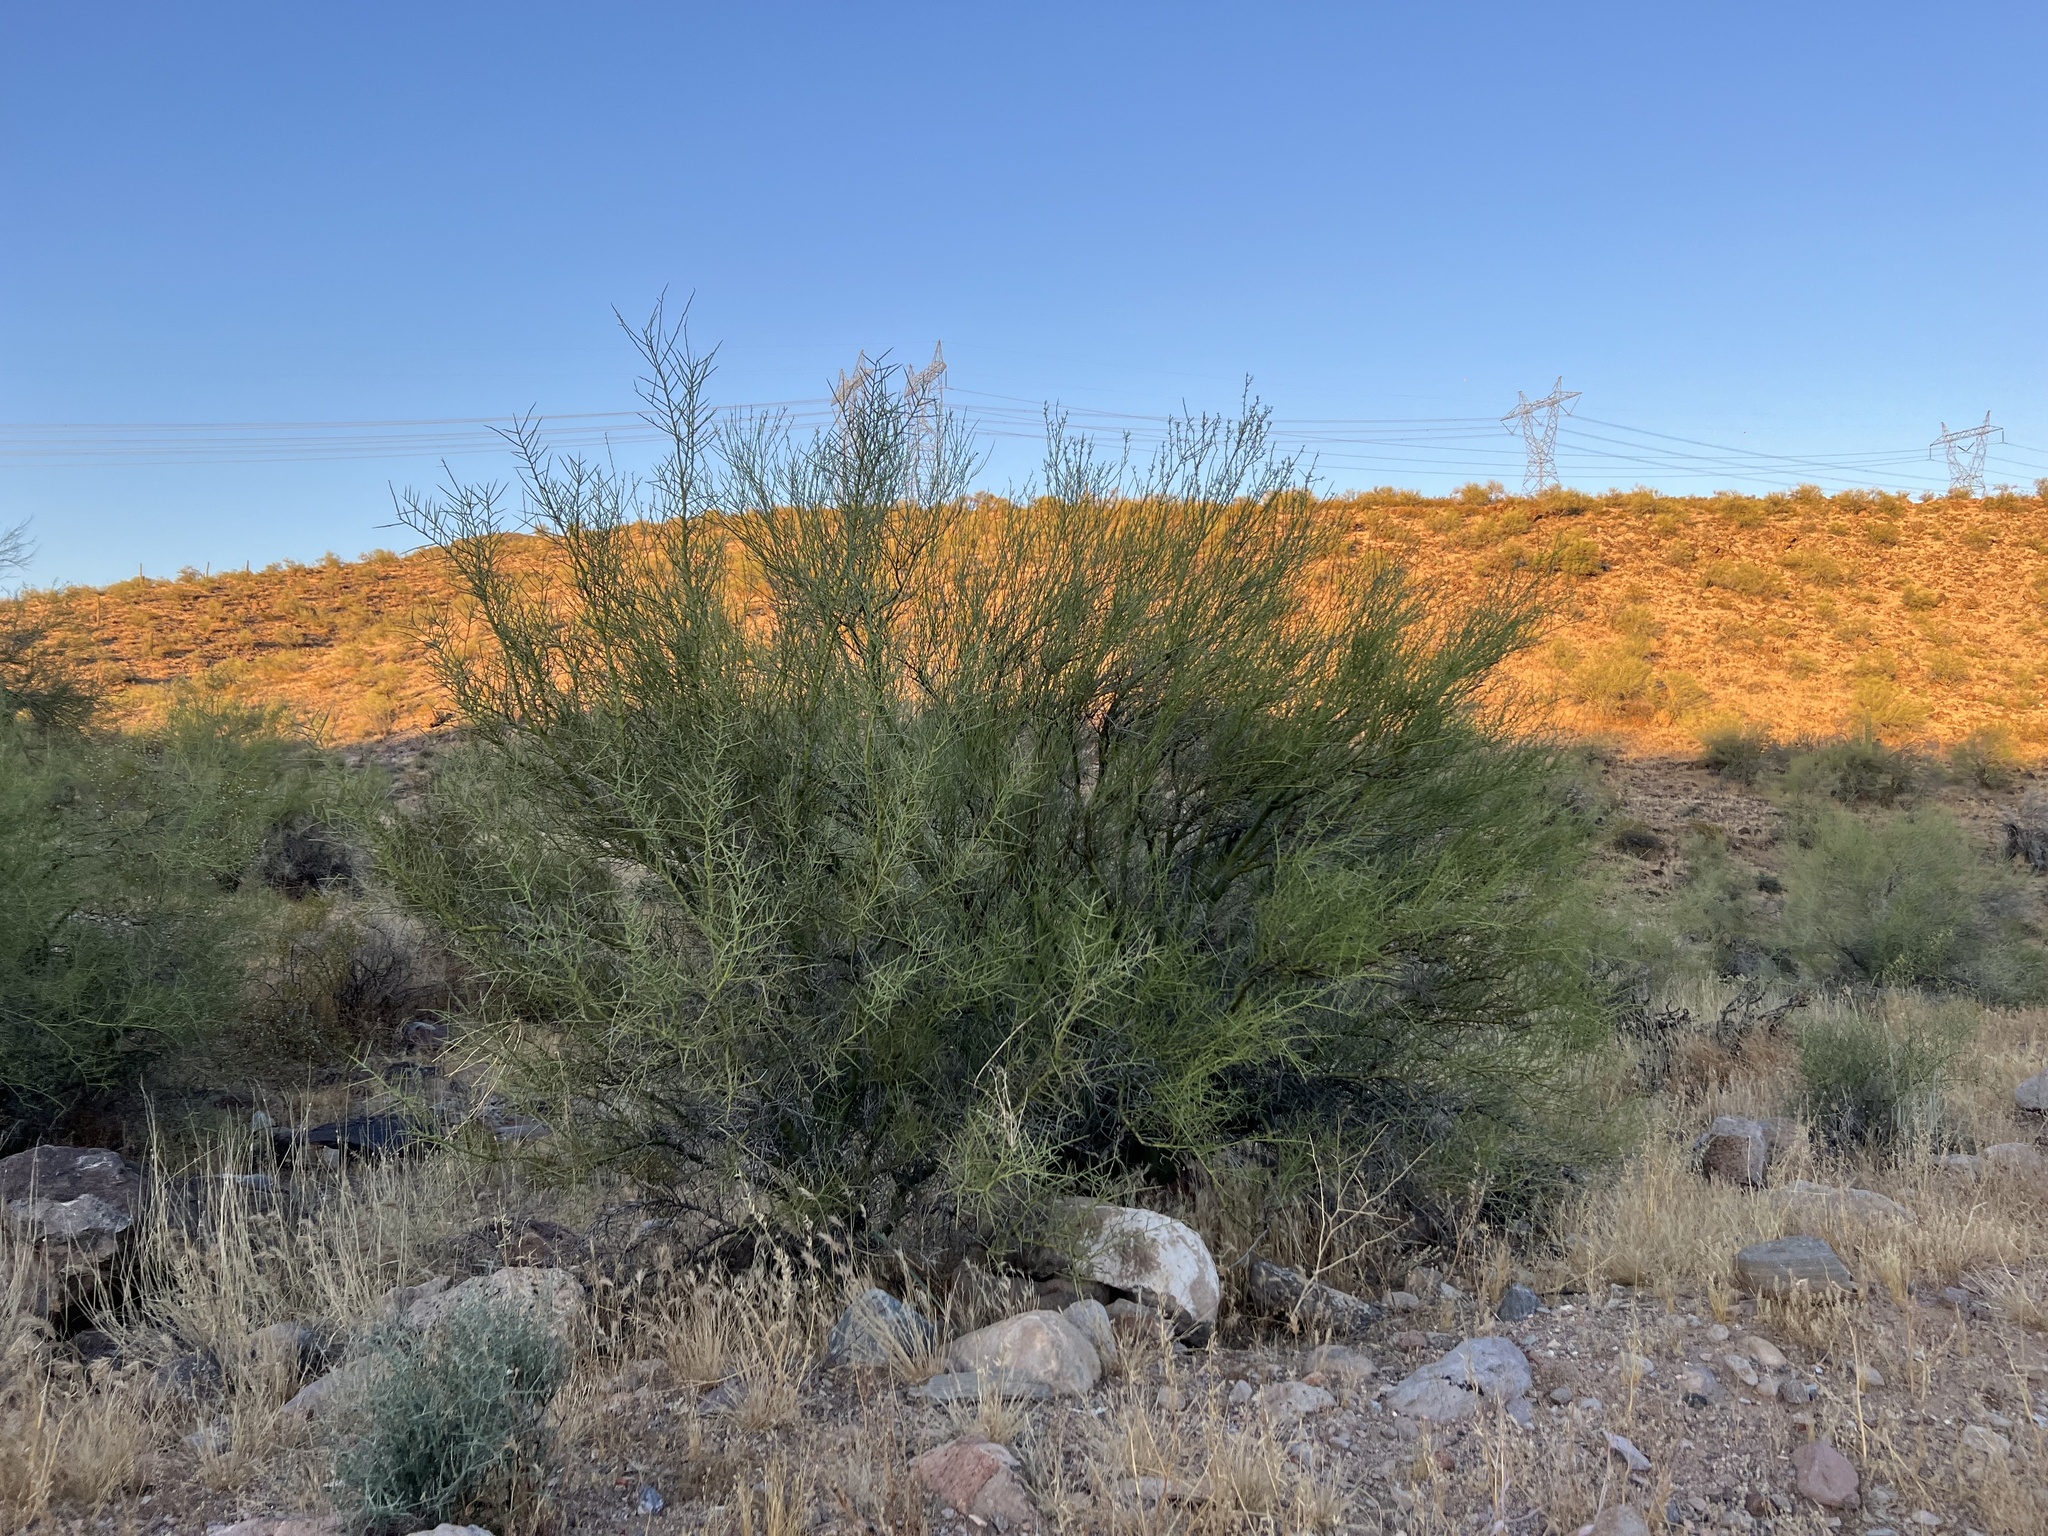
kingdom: Plantae
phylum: Tracheophyta
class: Magnoliopsida
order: Fabales
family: Fabaceae
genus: Parkinsonia
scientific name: Parkinsonia microphylla
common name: Yellow paloverde
